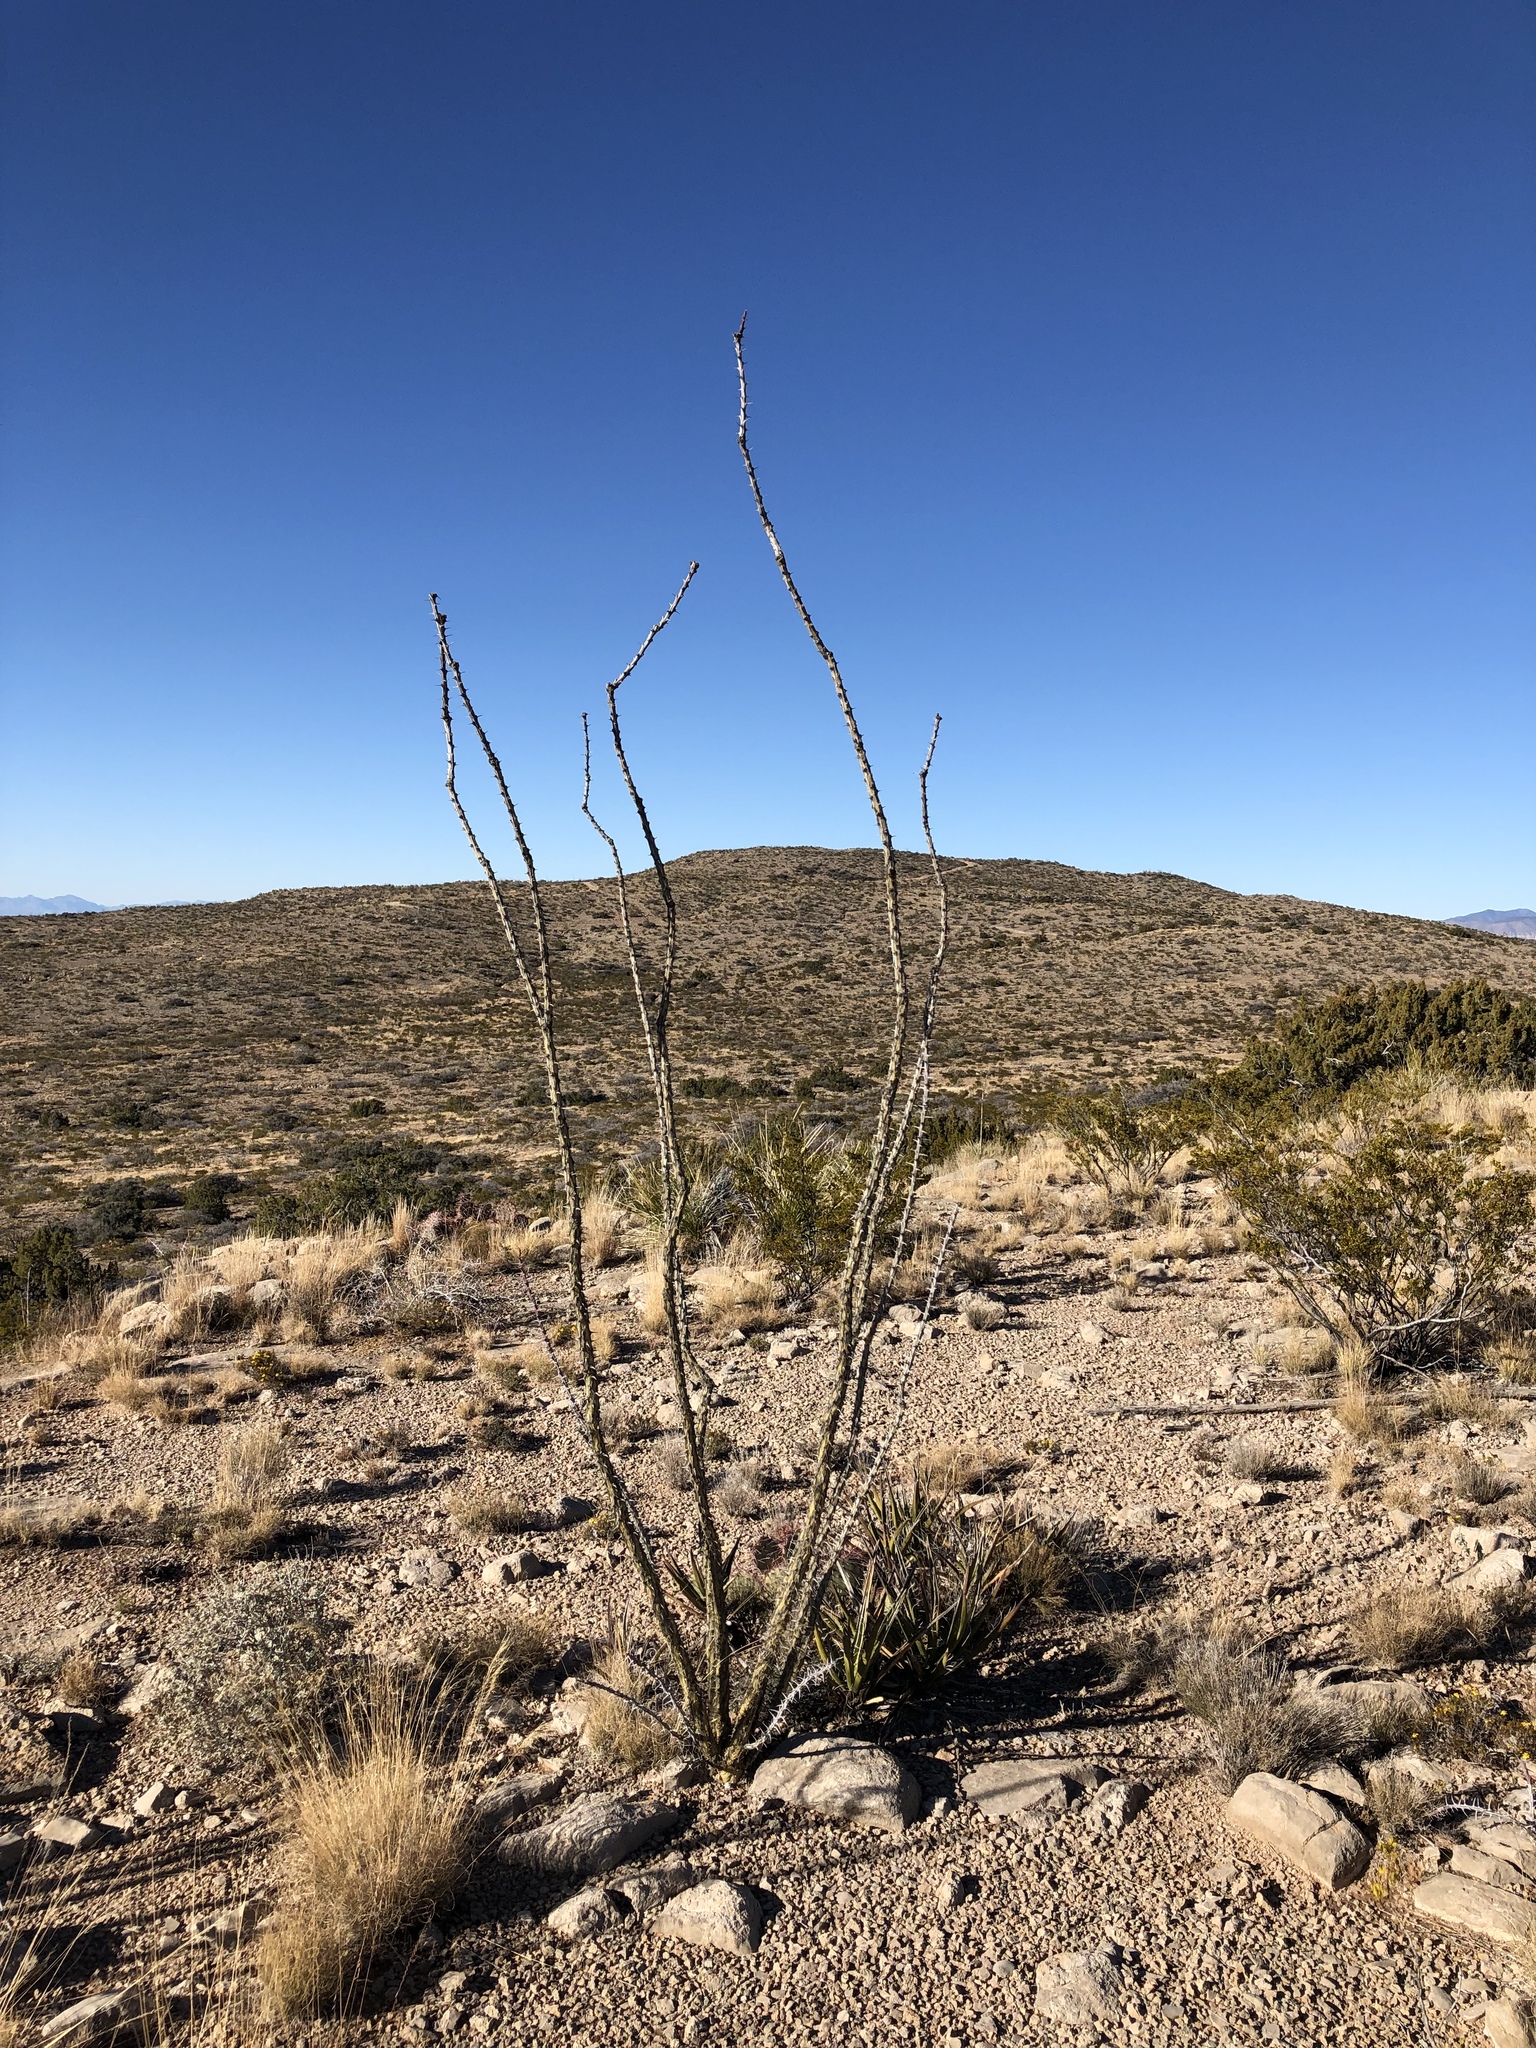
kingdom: Plantae
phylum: Tracheophyta
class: Magnoliopsida
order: Ericales
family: Fouquieriaceae
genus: Fouquieria
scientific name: Fouquieria splendens
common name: Vine-cactus
